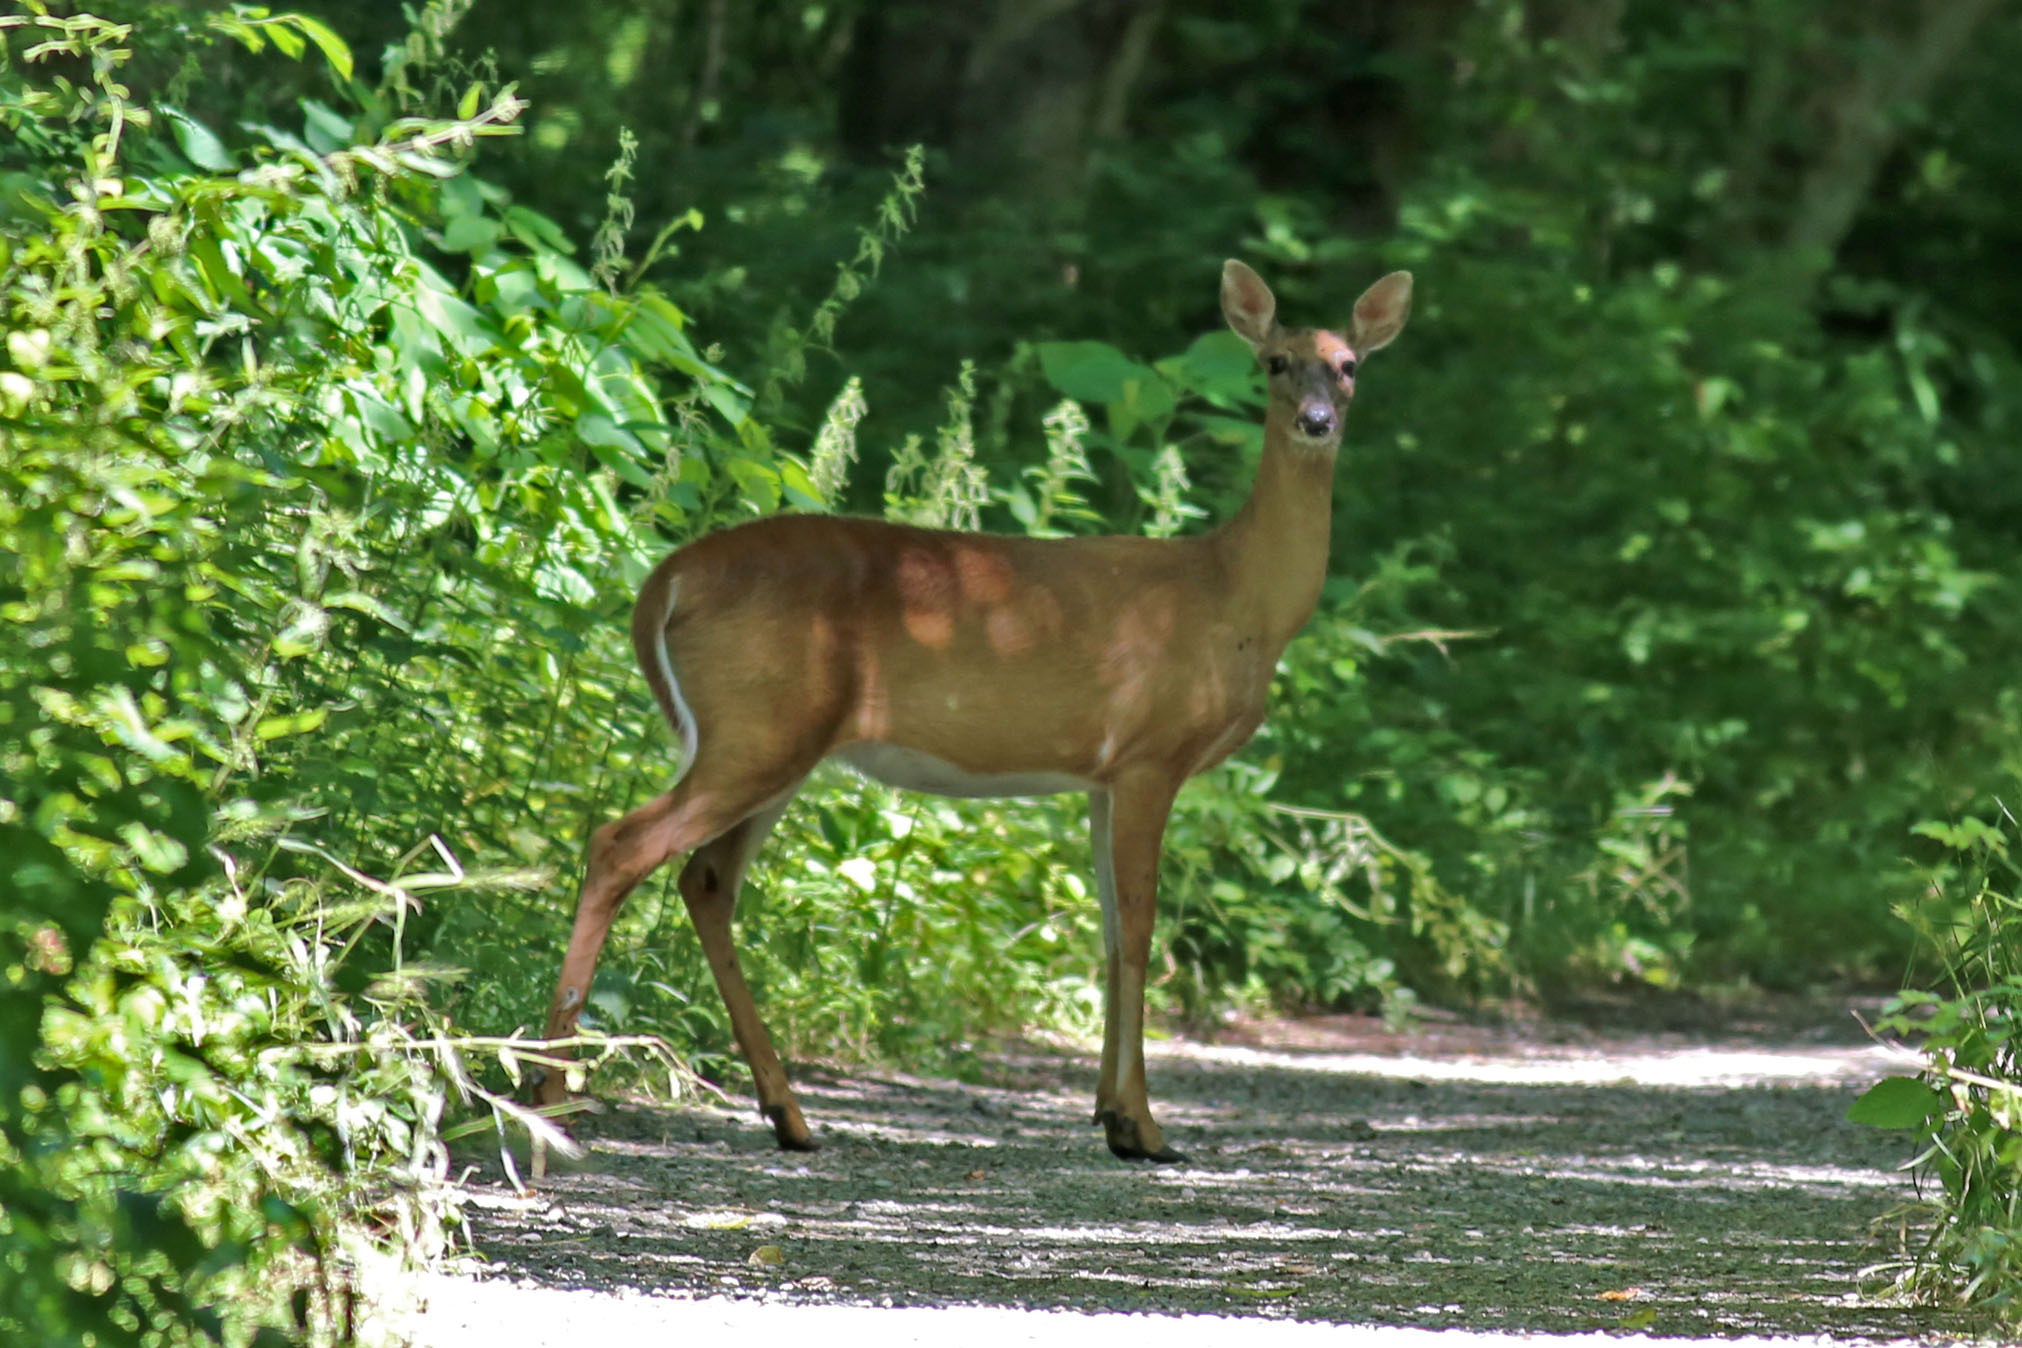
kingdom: Animalia
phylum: Chordata
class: Mammalia
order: Artiodactyla
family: Cervidae
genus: Odocoileus
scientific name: Odocoileus virginianus
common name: White-tailed deer
